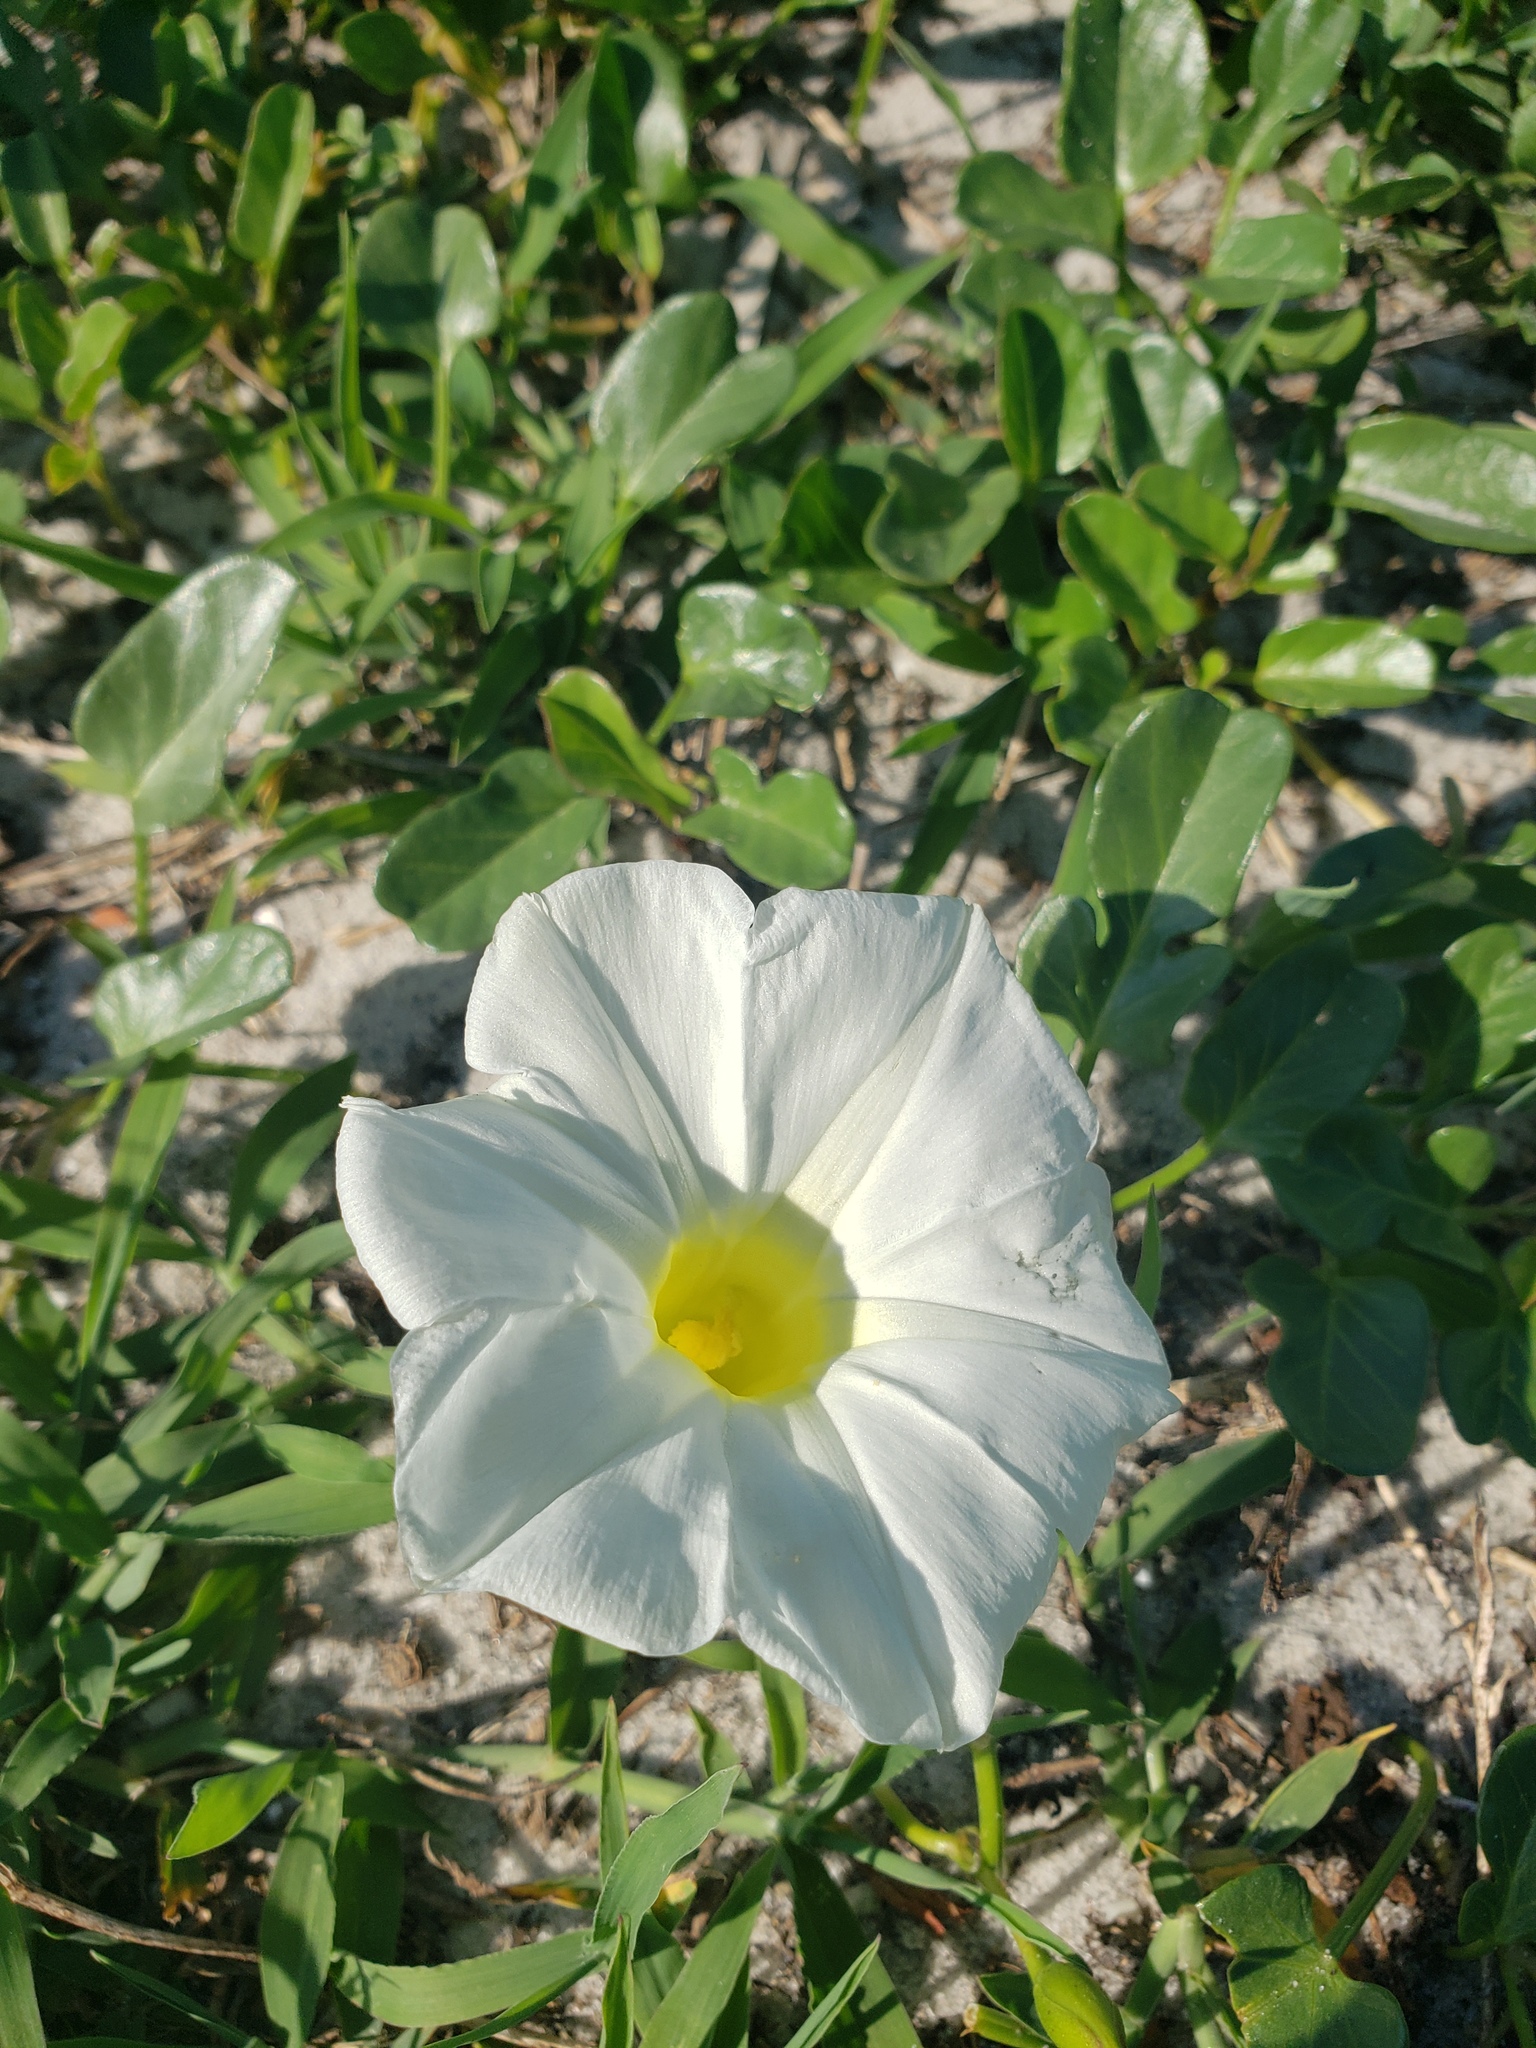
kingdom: Plantae
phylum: Tracheophyta
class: Magnoliopsida
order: Solanales
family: Convolvulaceae
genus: Ipomoea
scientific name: Ipomoea imperati
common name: Fiddle-leaf morning-glory
